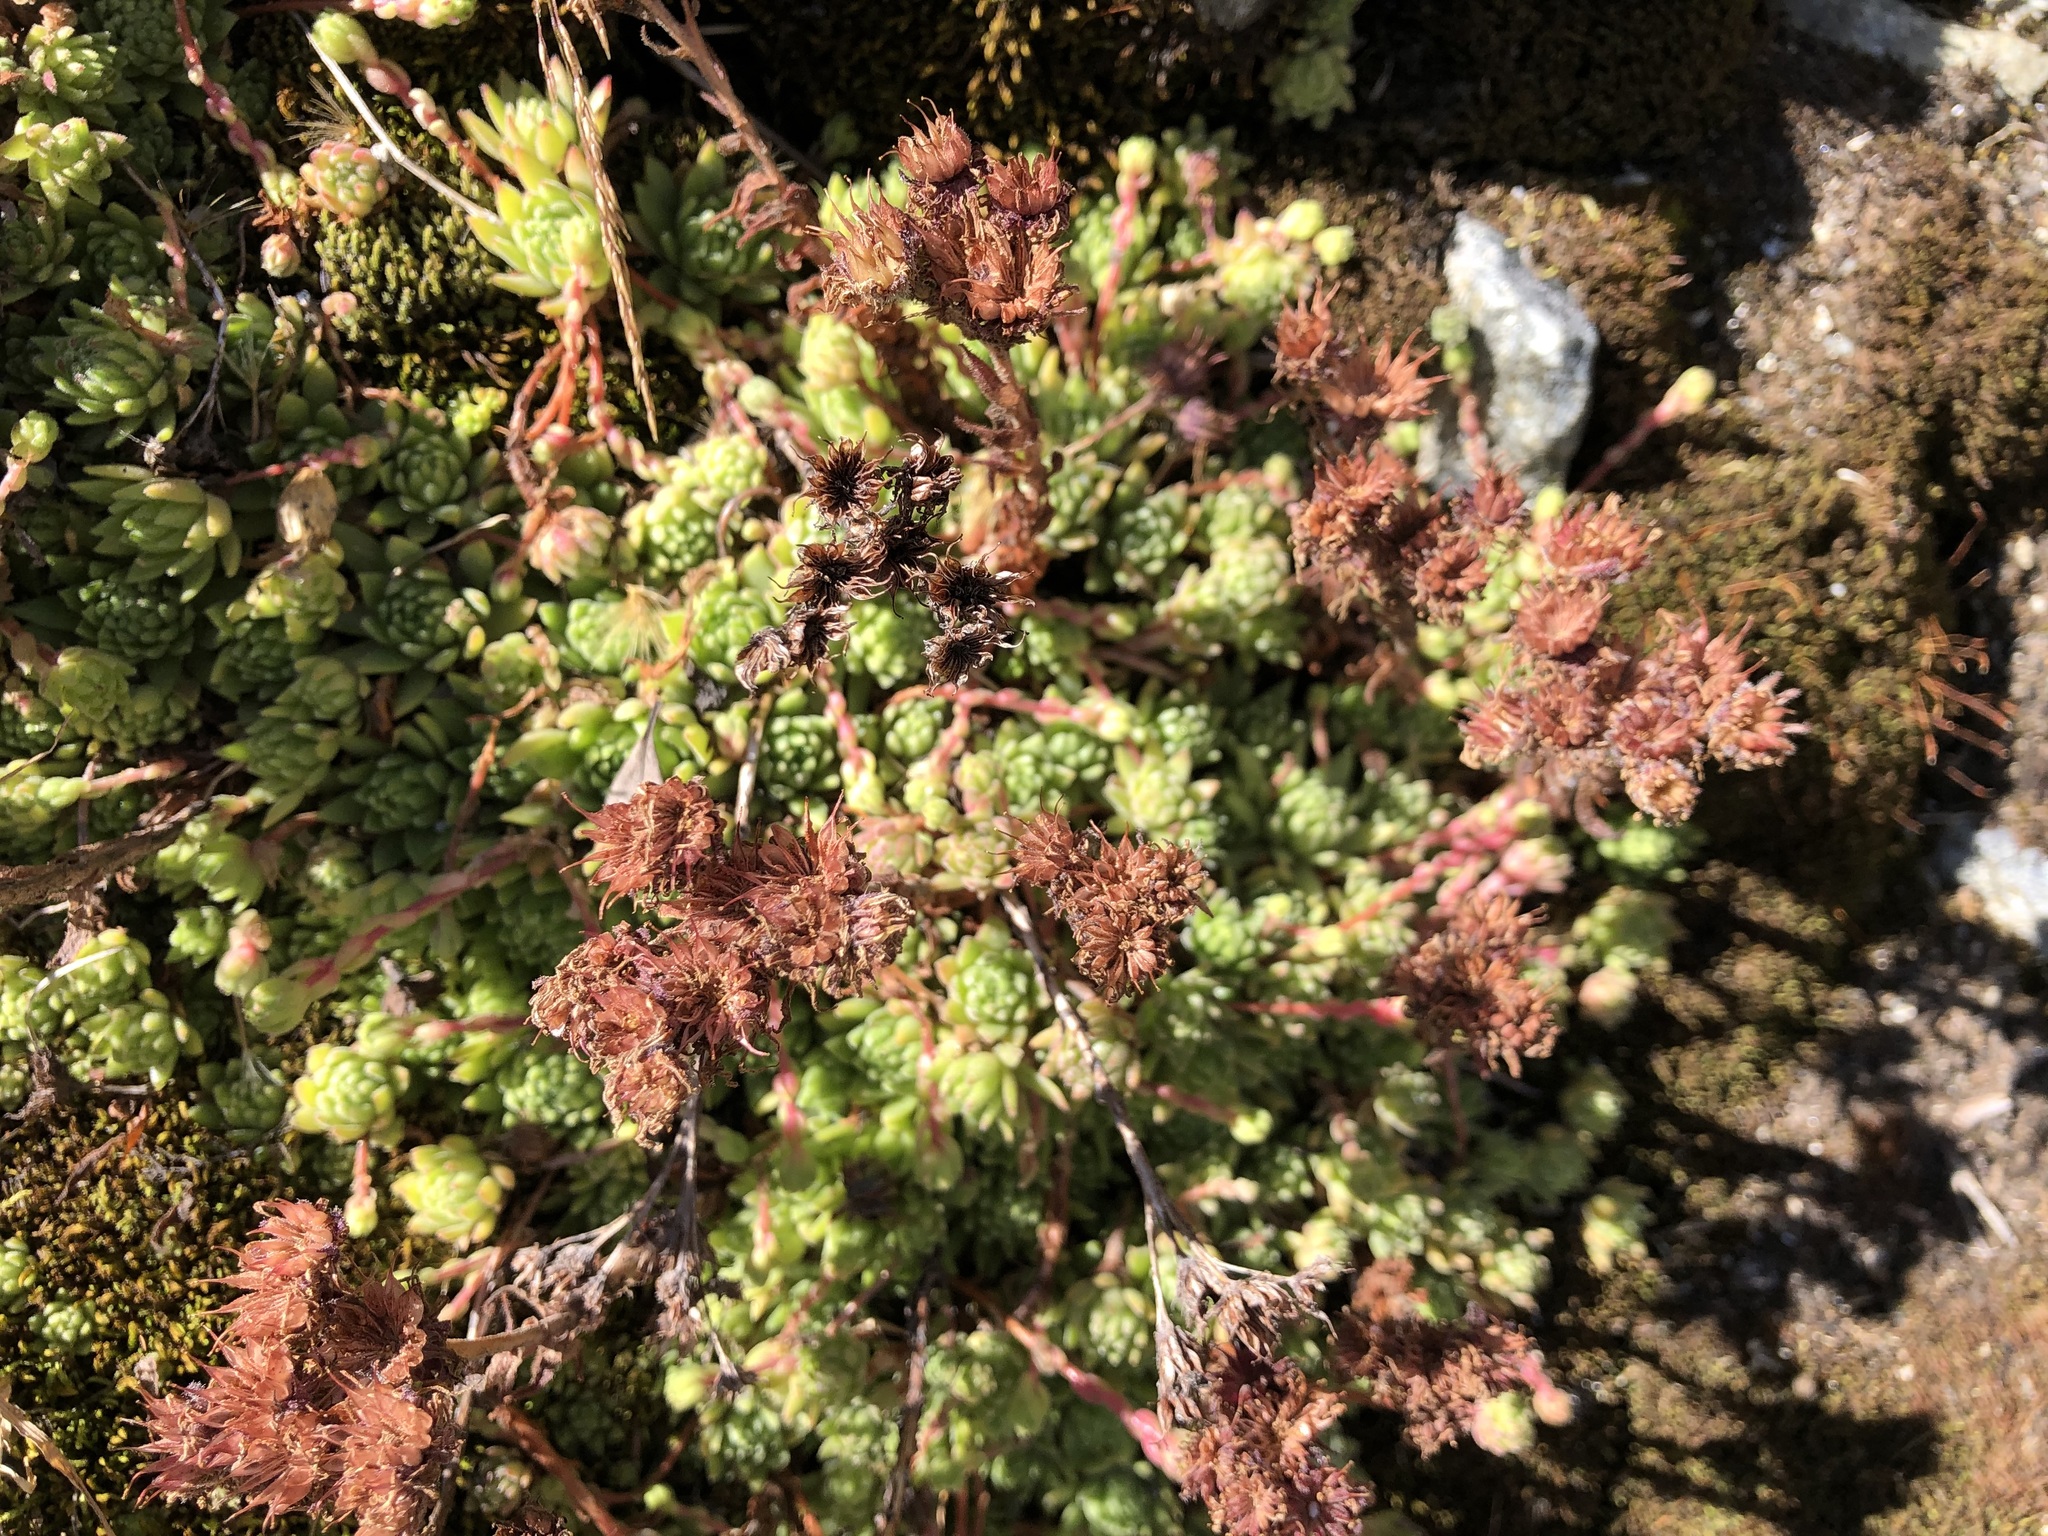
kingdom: Plantae
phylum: Tracheophyta
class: Magnoliopsida
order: Saxifragales
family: Crassulaceae
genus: Sempervivum
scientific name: Sempervivum montanum
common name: Mountain house-leek
